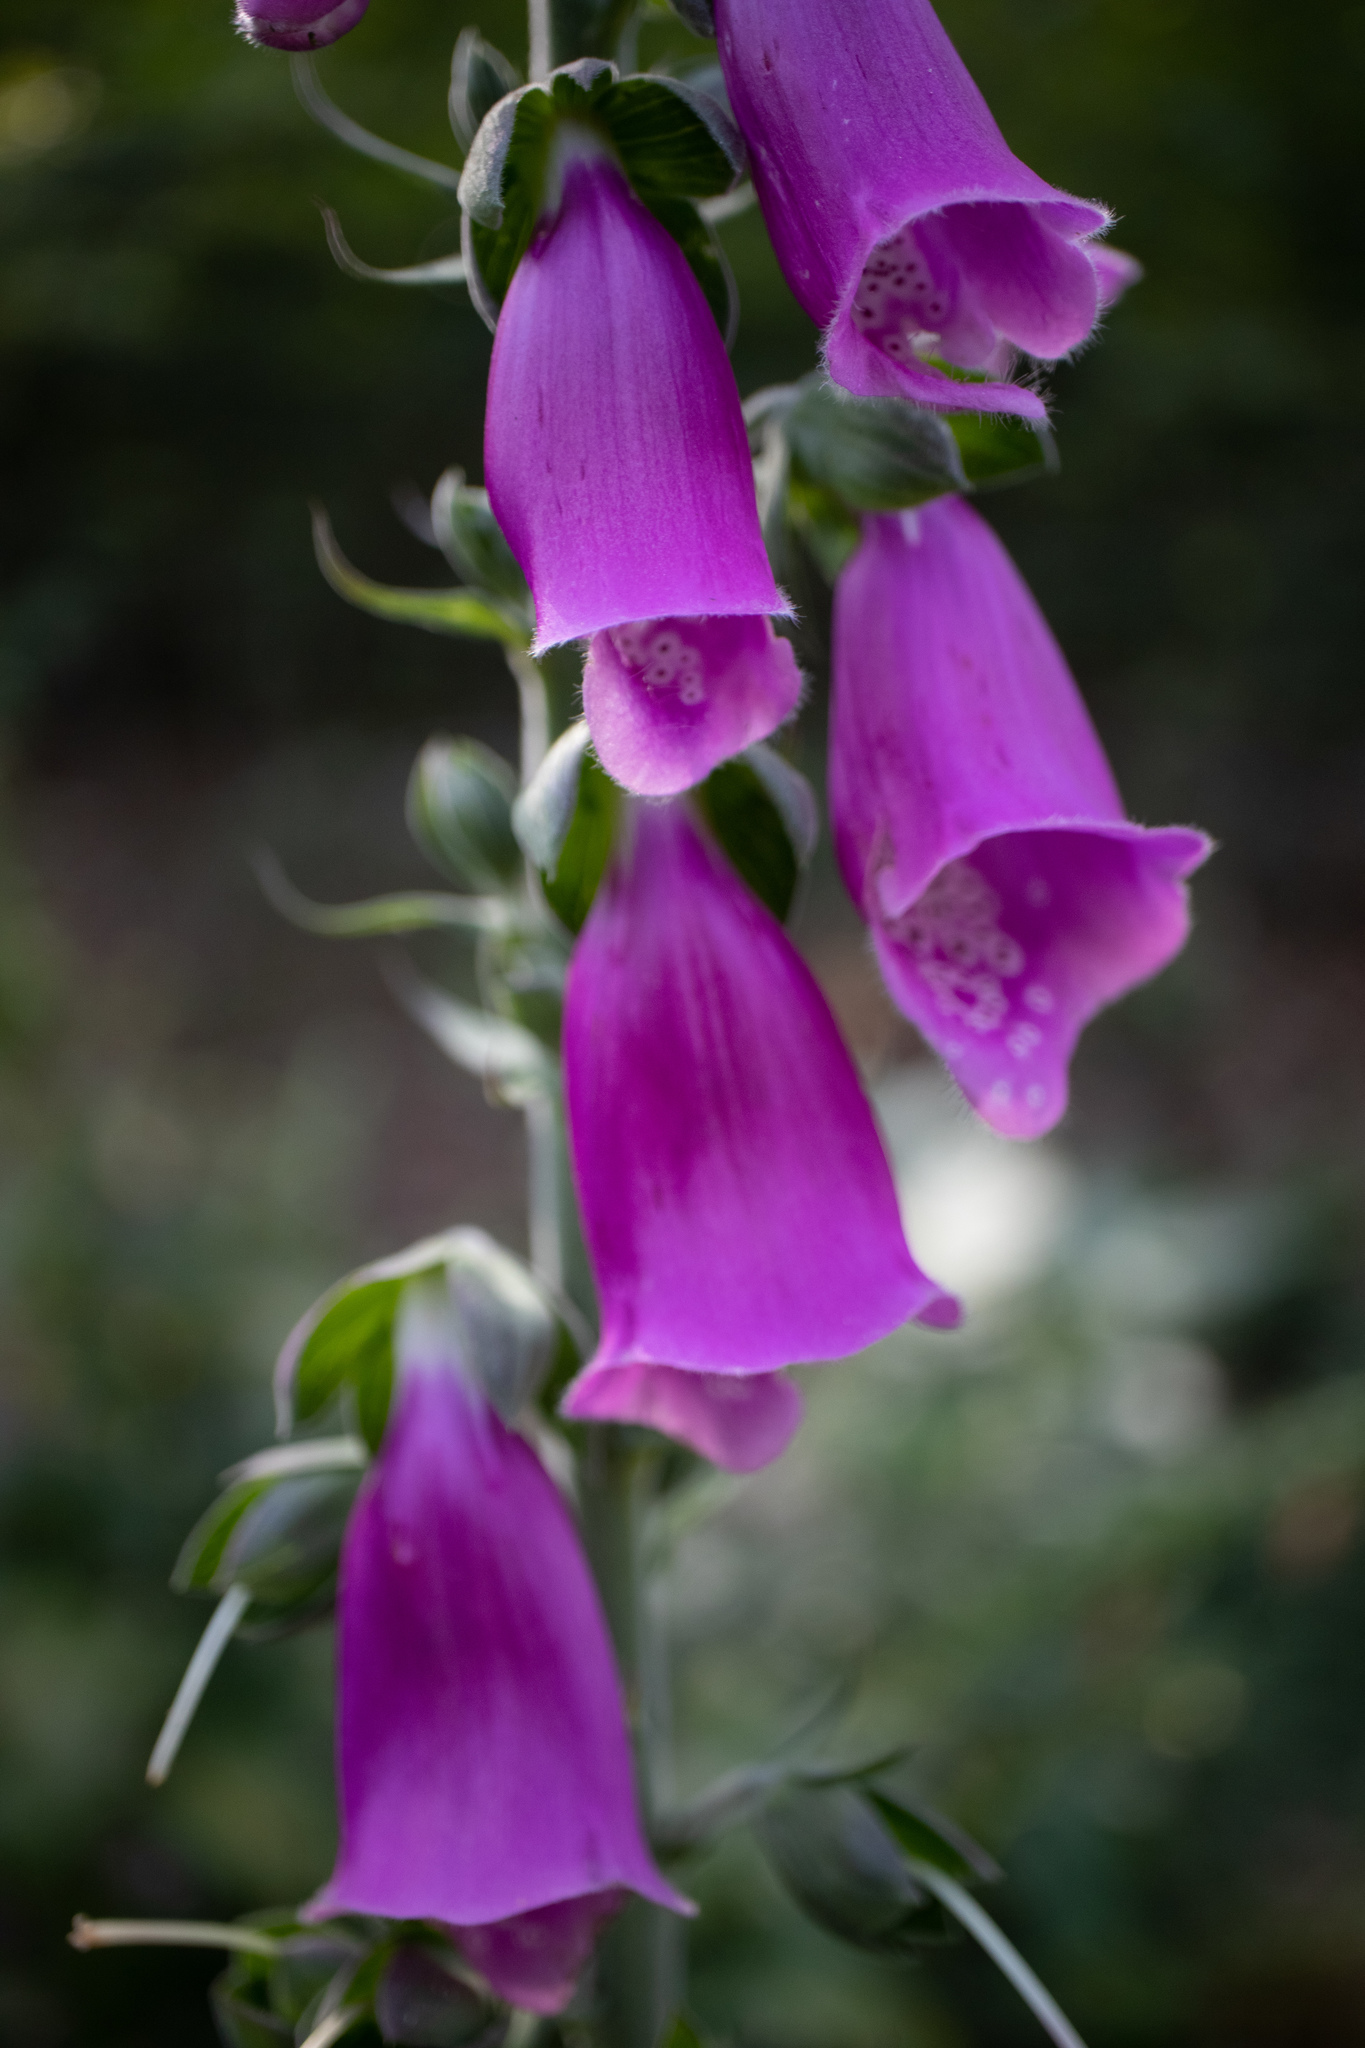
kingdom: Plantae
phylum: Tracheophyta
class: Magnoliopsida
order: Lamiales
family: Plantaginaceae
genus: Digitalis
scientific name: Digitalis purpurea
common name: Foxglove
